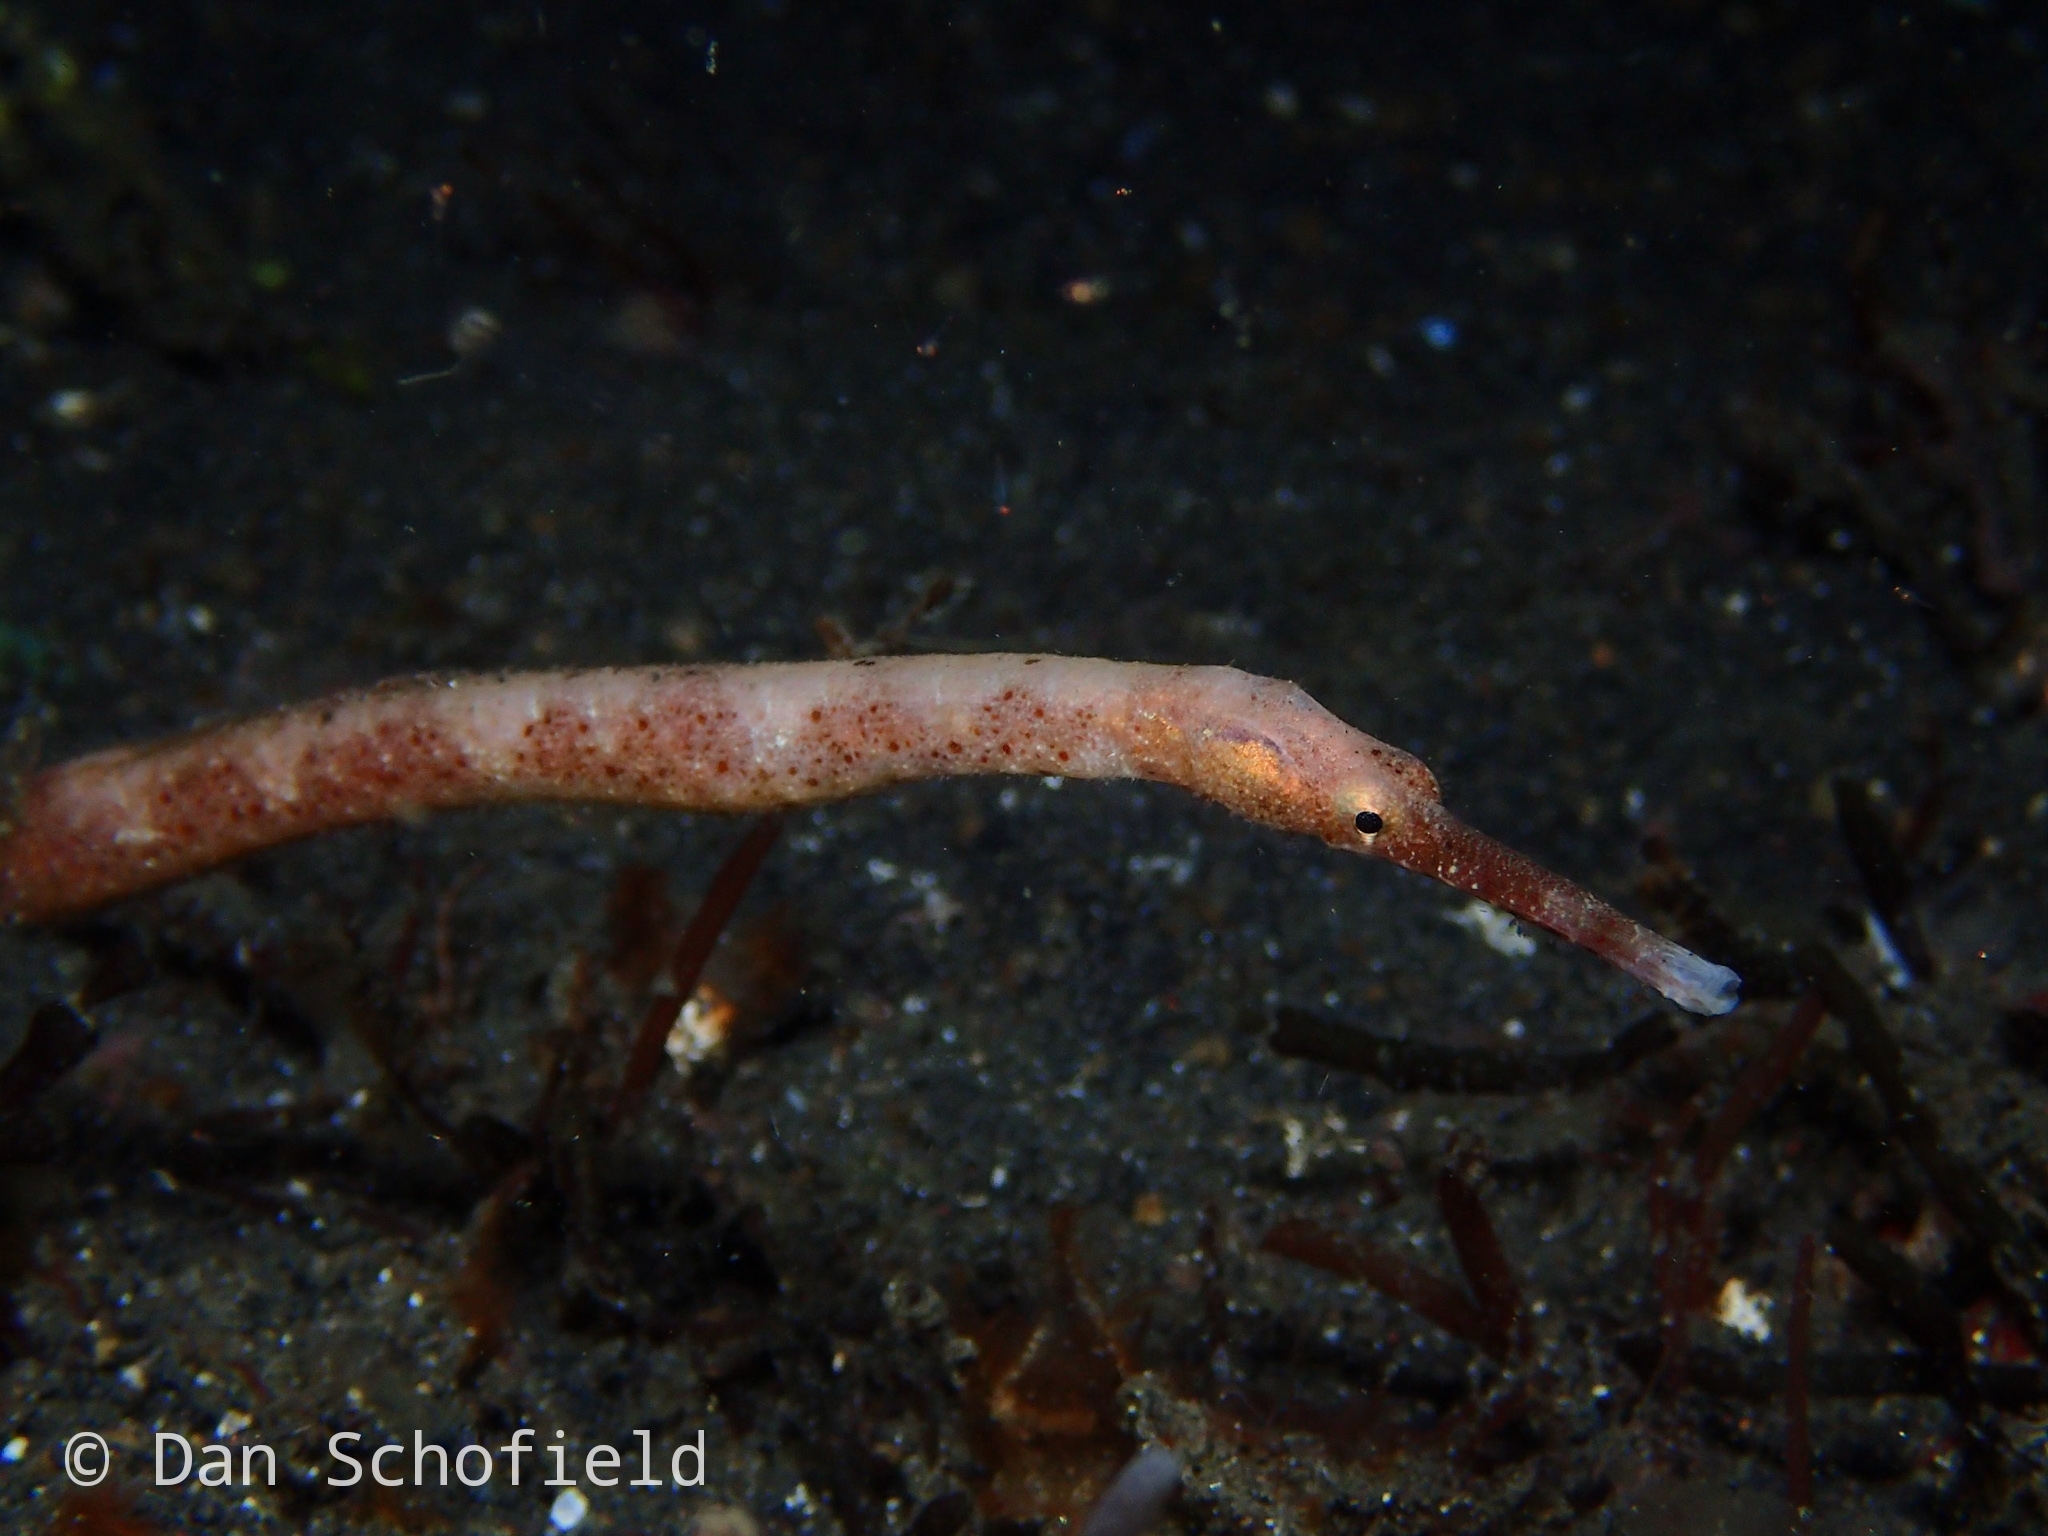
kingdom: Animalia
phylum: Chordata
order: Syngnathiformes
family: Syngnathidae
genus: Trachyrhamphus
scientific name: Trachyrhamphus bicoarctatus
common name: Double-ended pipefish
